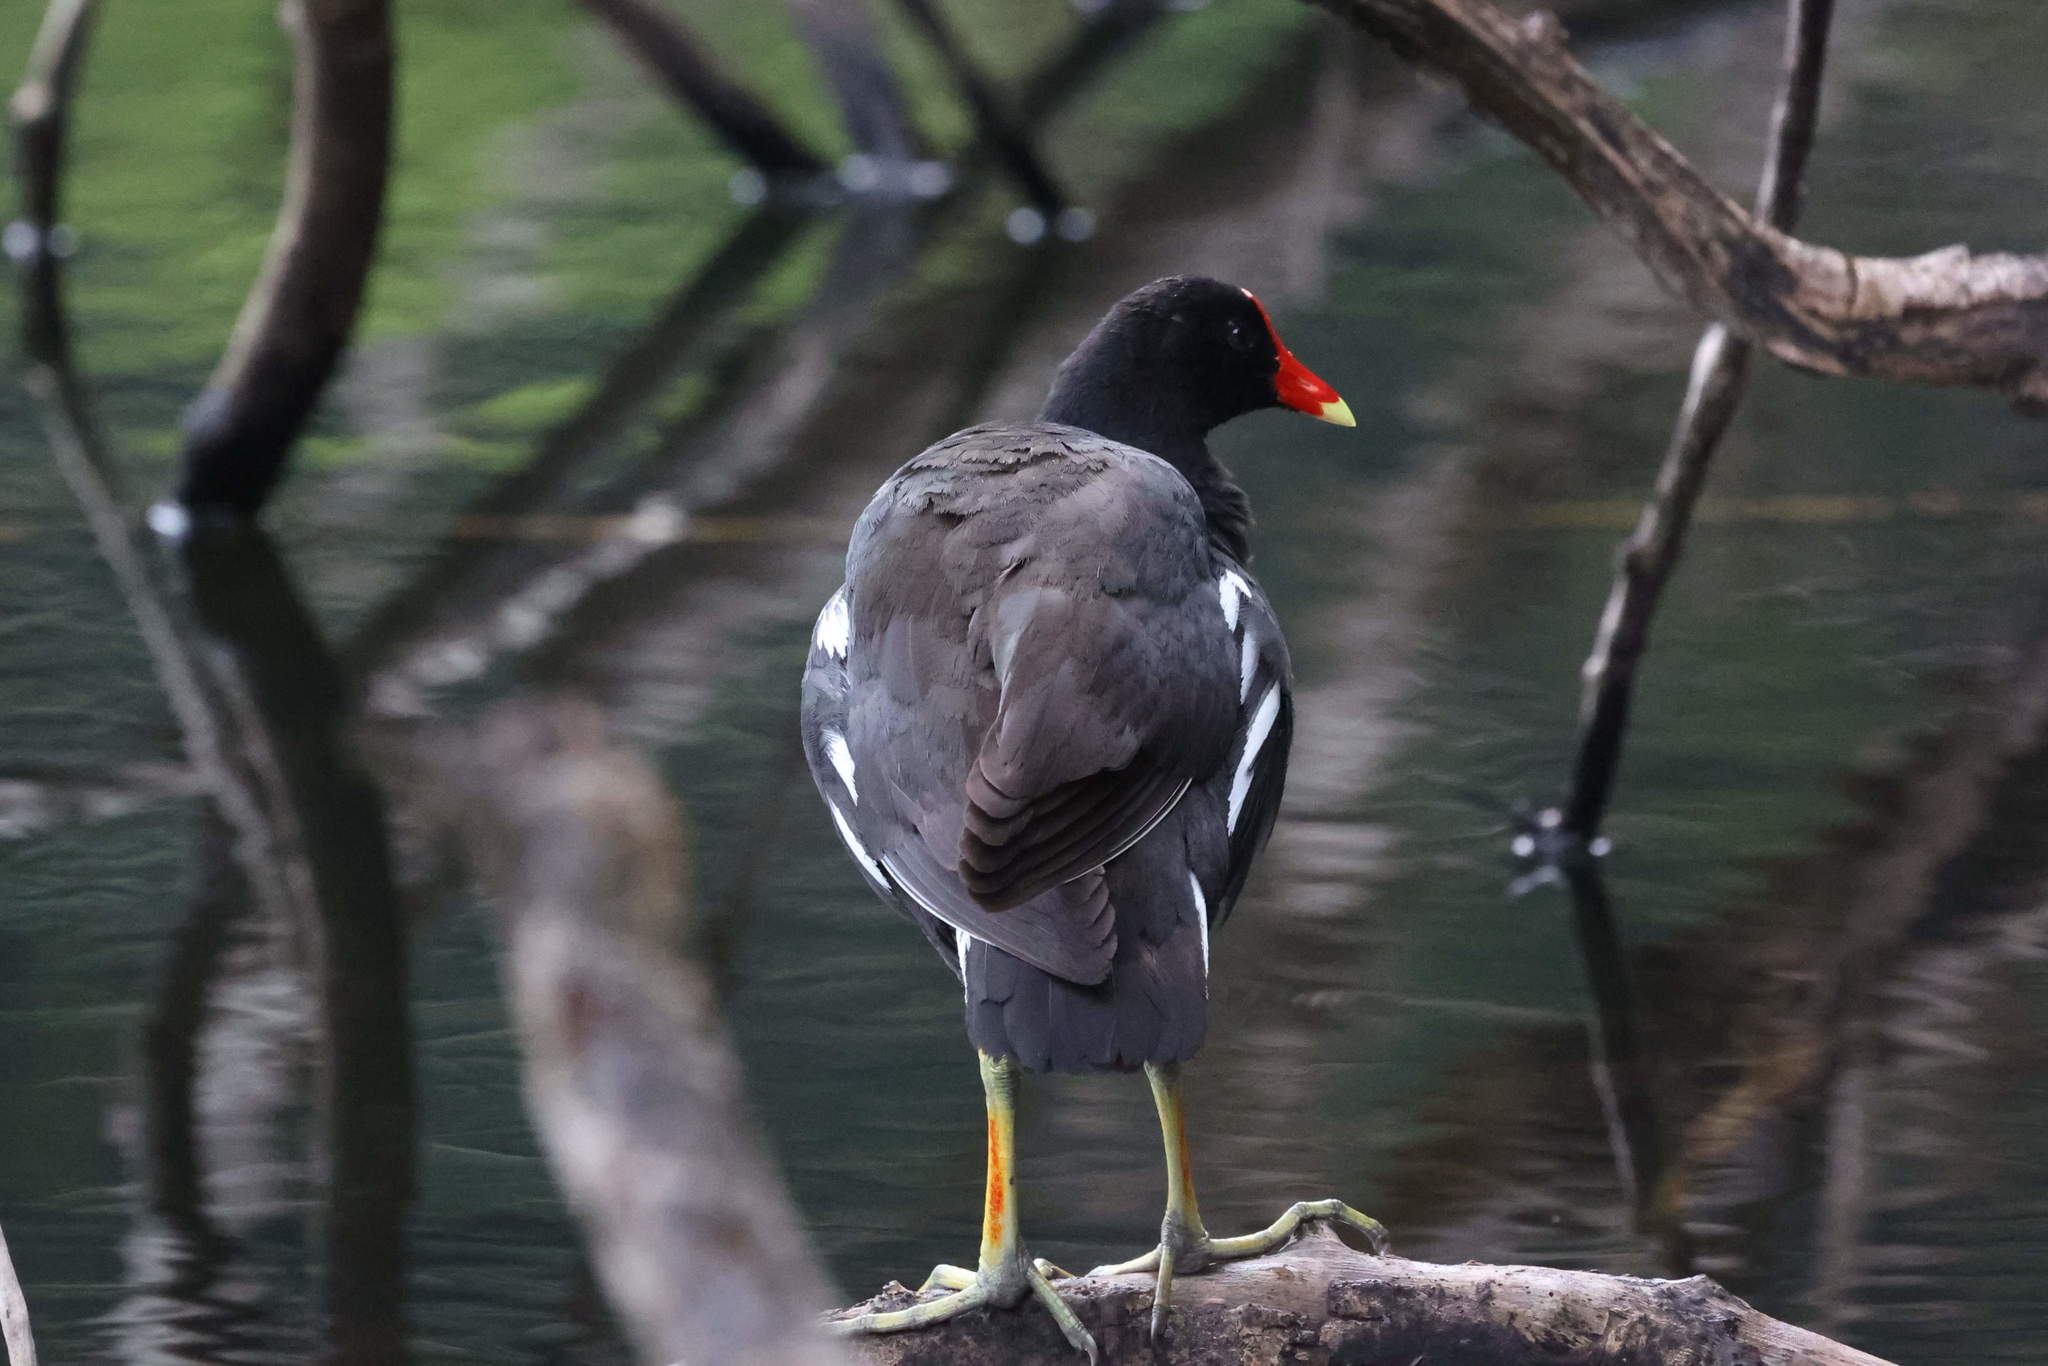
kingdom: Animalia
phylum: Chordata
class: Aves
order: Gruiformes
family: Rallidae
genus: Gallinula
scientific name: Gallinula chloropus
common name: Common moorhen
